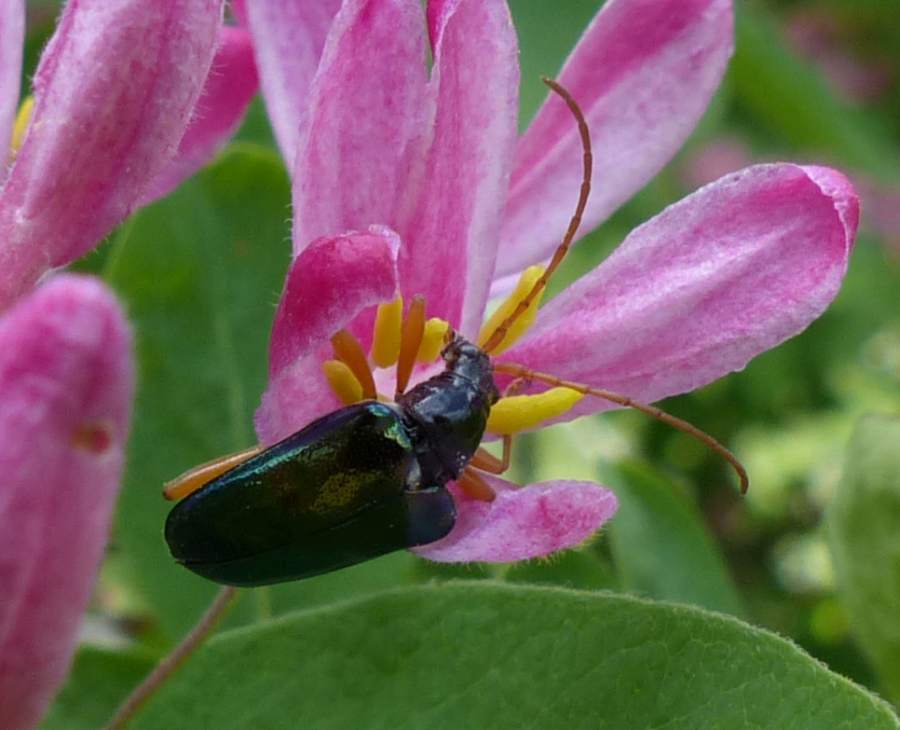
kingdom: Animalia
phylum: Arthropoda
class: Insecta
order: Coleoptera
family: Cerambycidae
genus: Gaurotes
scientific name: Gaurotes cyanipennis
